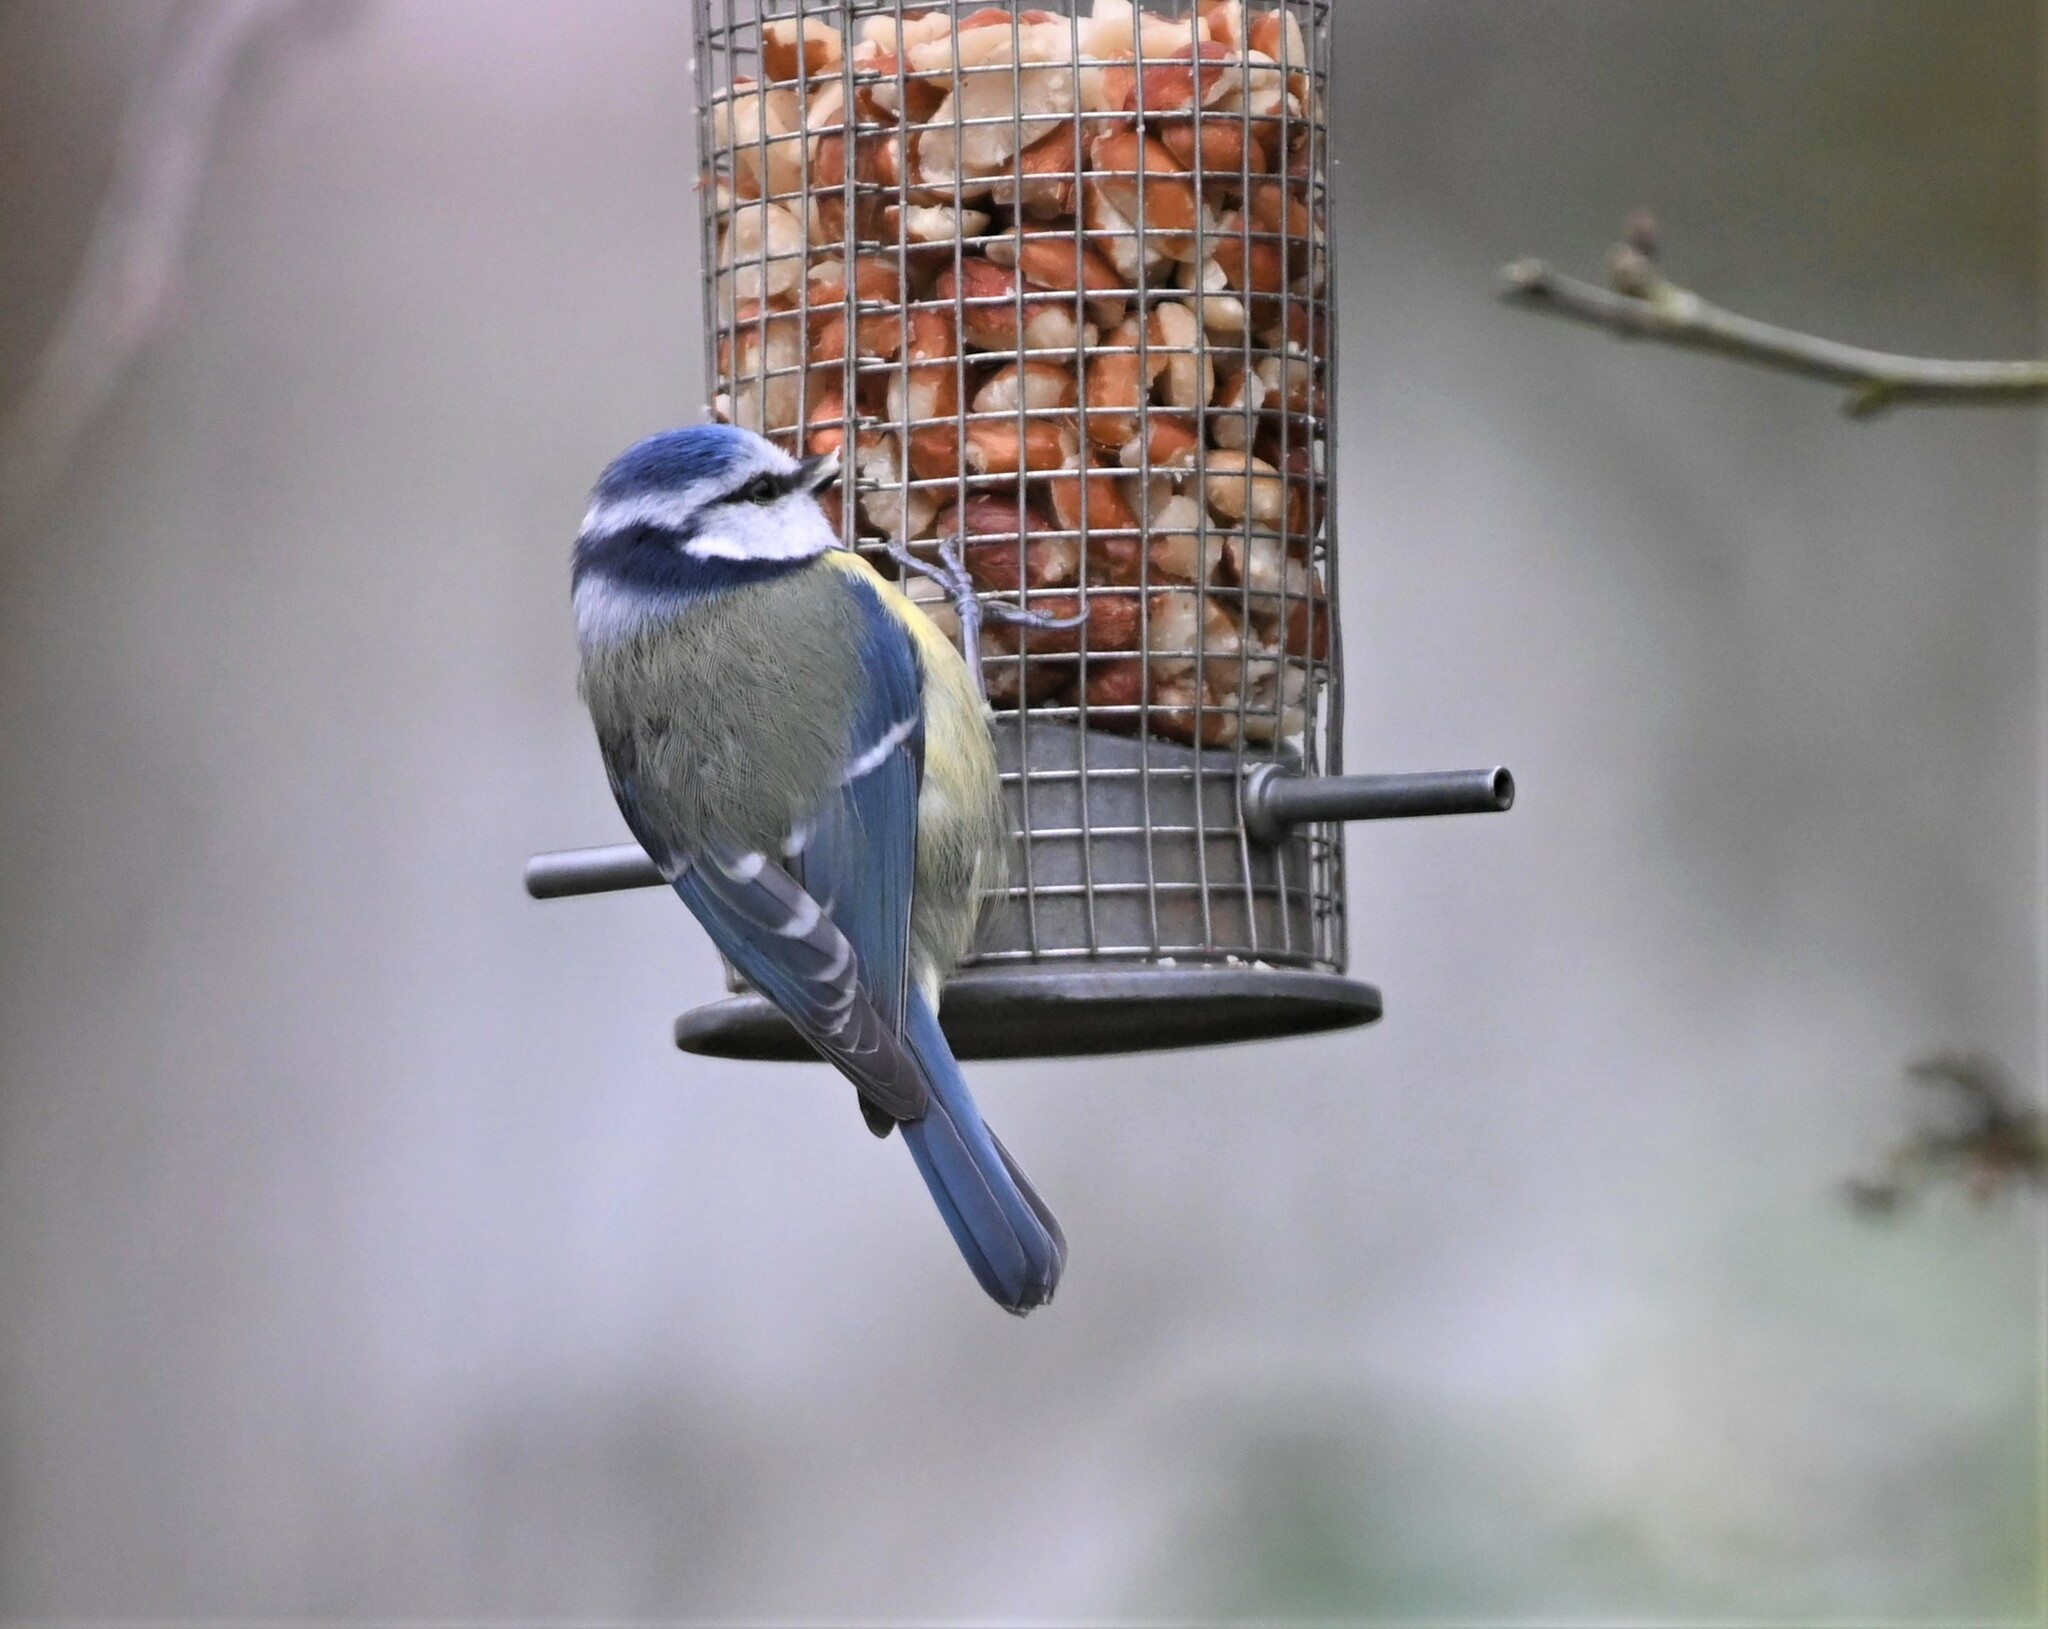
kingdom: Animalia
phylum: Chordata
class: Aves
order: Passeriformes
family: Paridae
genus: Cyanistes
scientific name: Cyanistes caeruleus
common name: Eurasian blue tit
